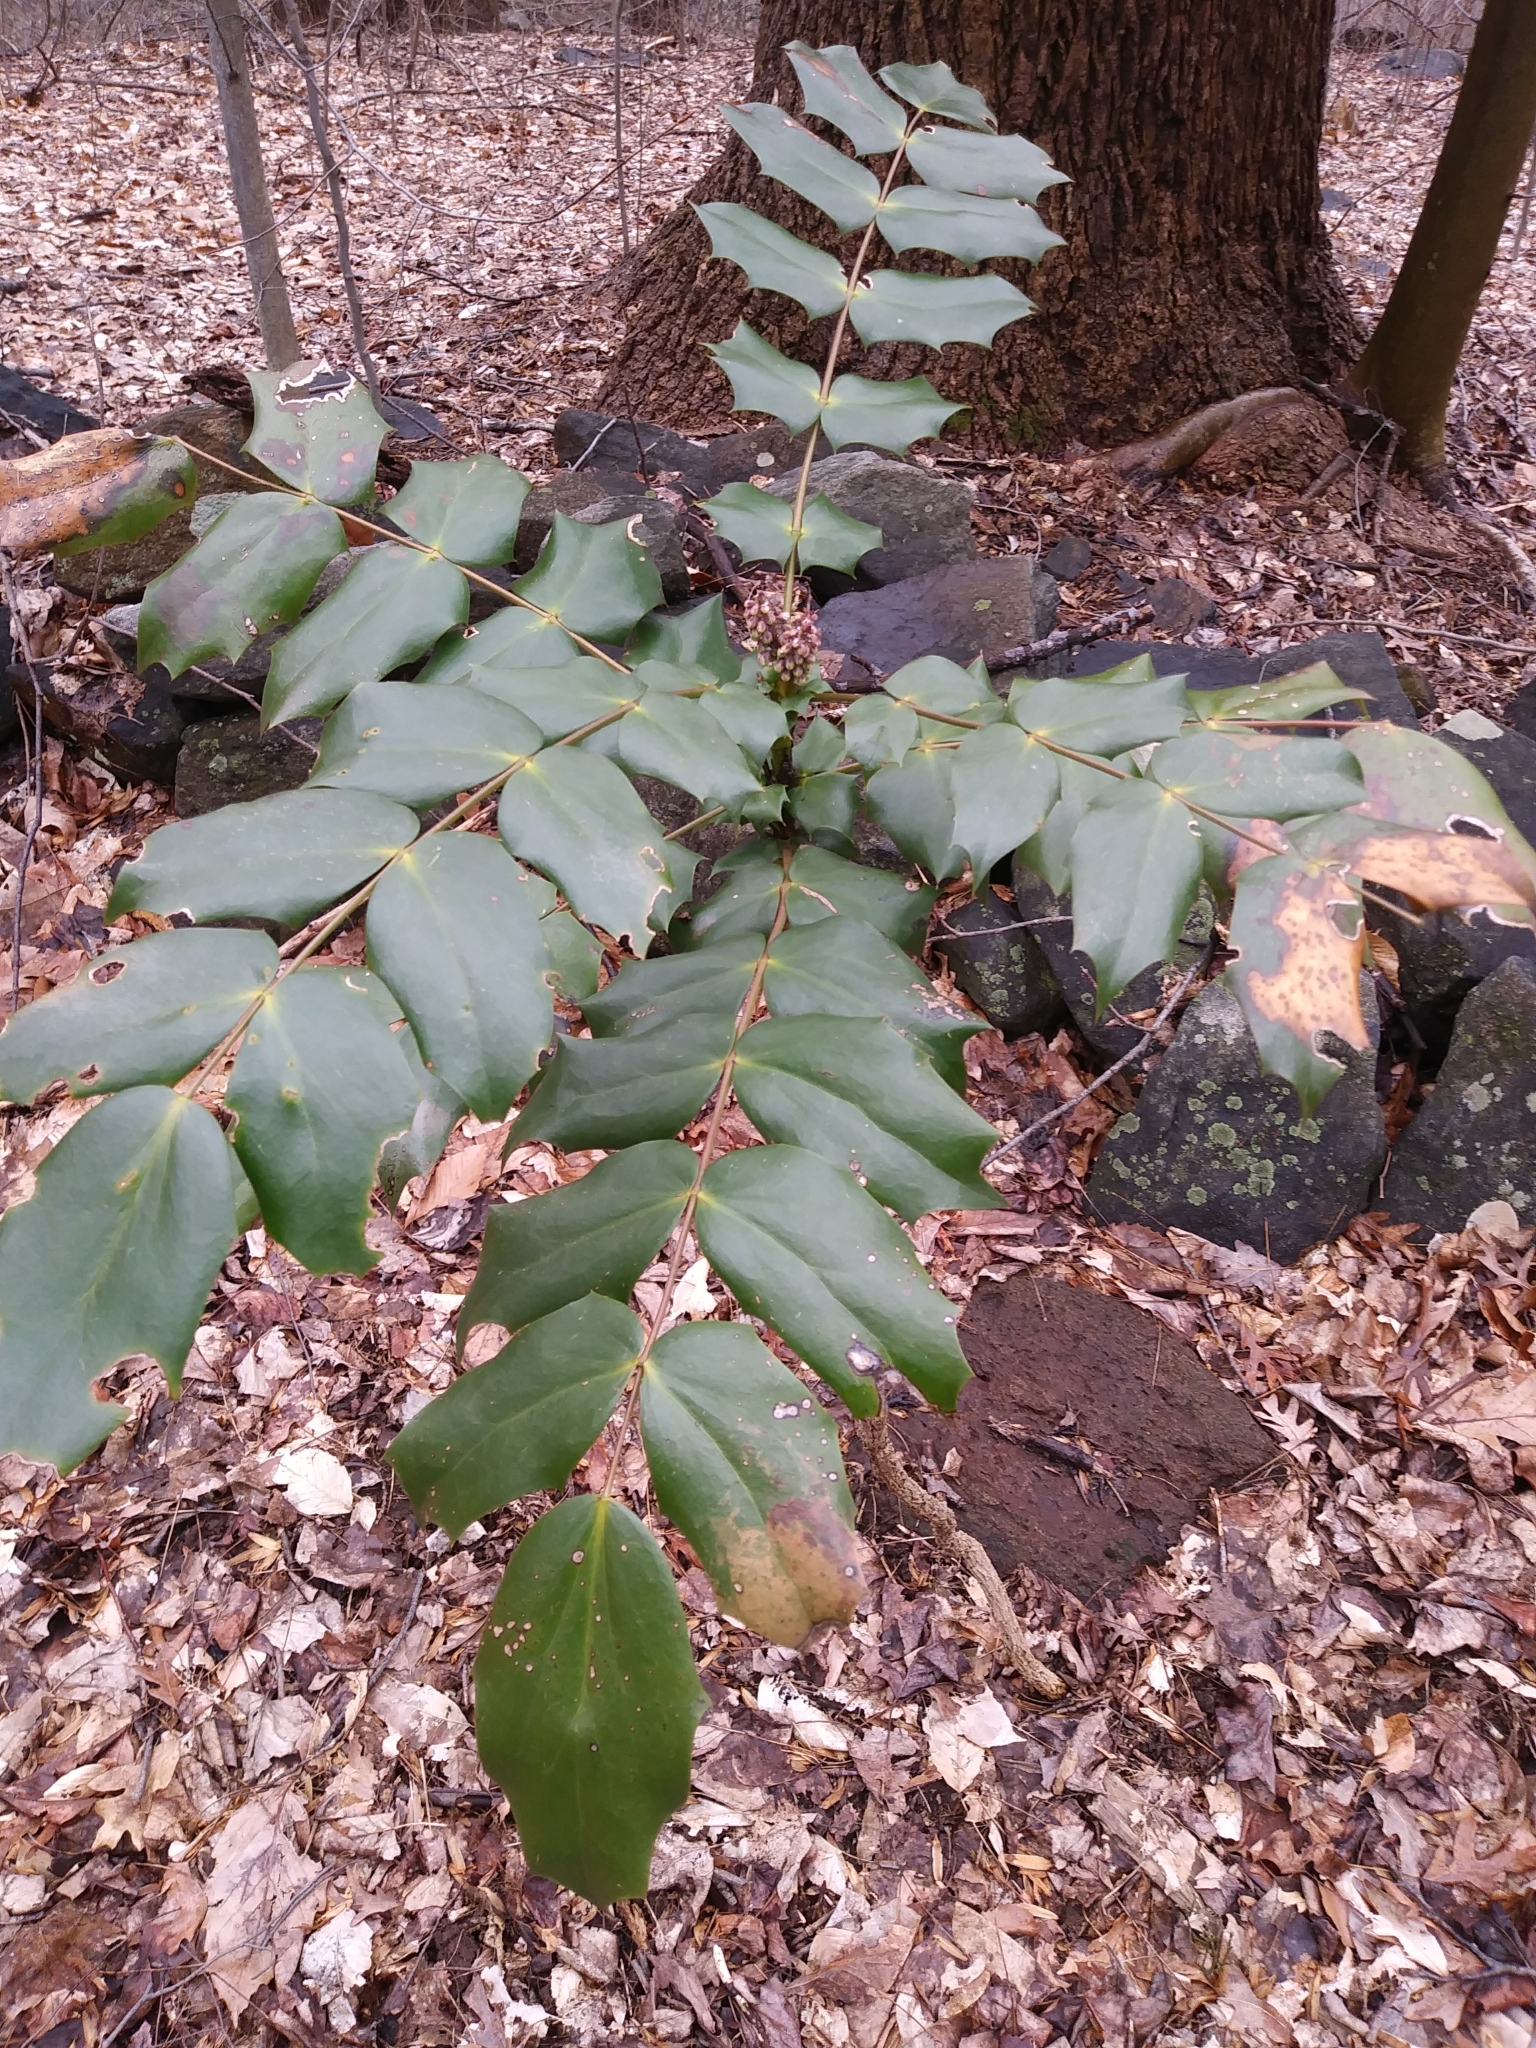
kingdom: Plantae
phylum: Tracheophyta
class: Magnoliopsida
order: Ranunculales
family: Berberidaceae
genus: Mahonia
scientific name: Mahonia bealei
